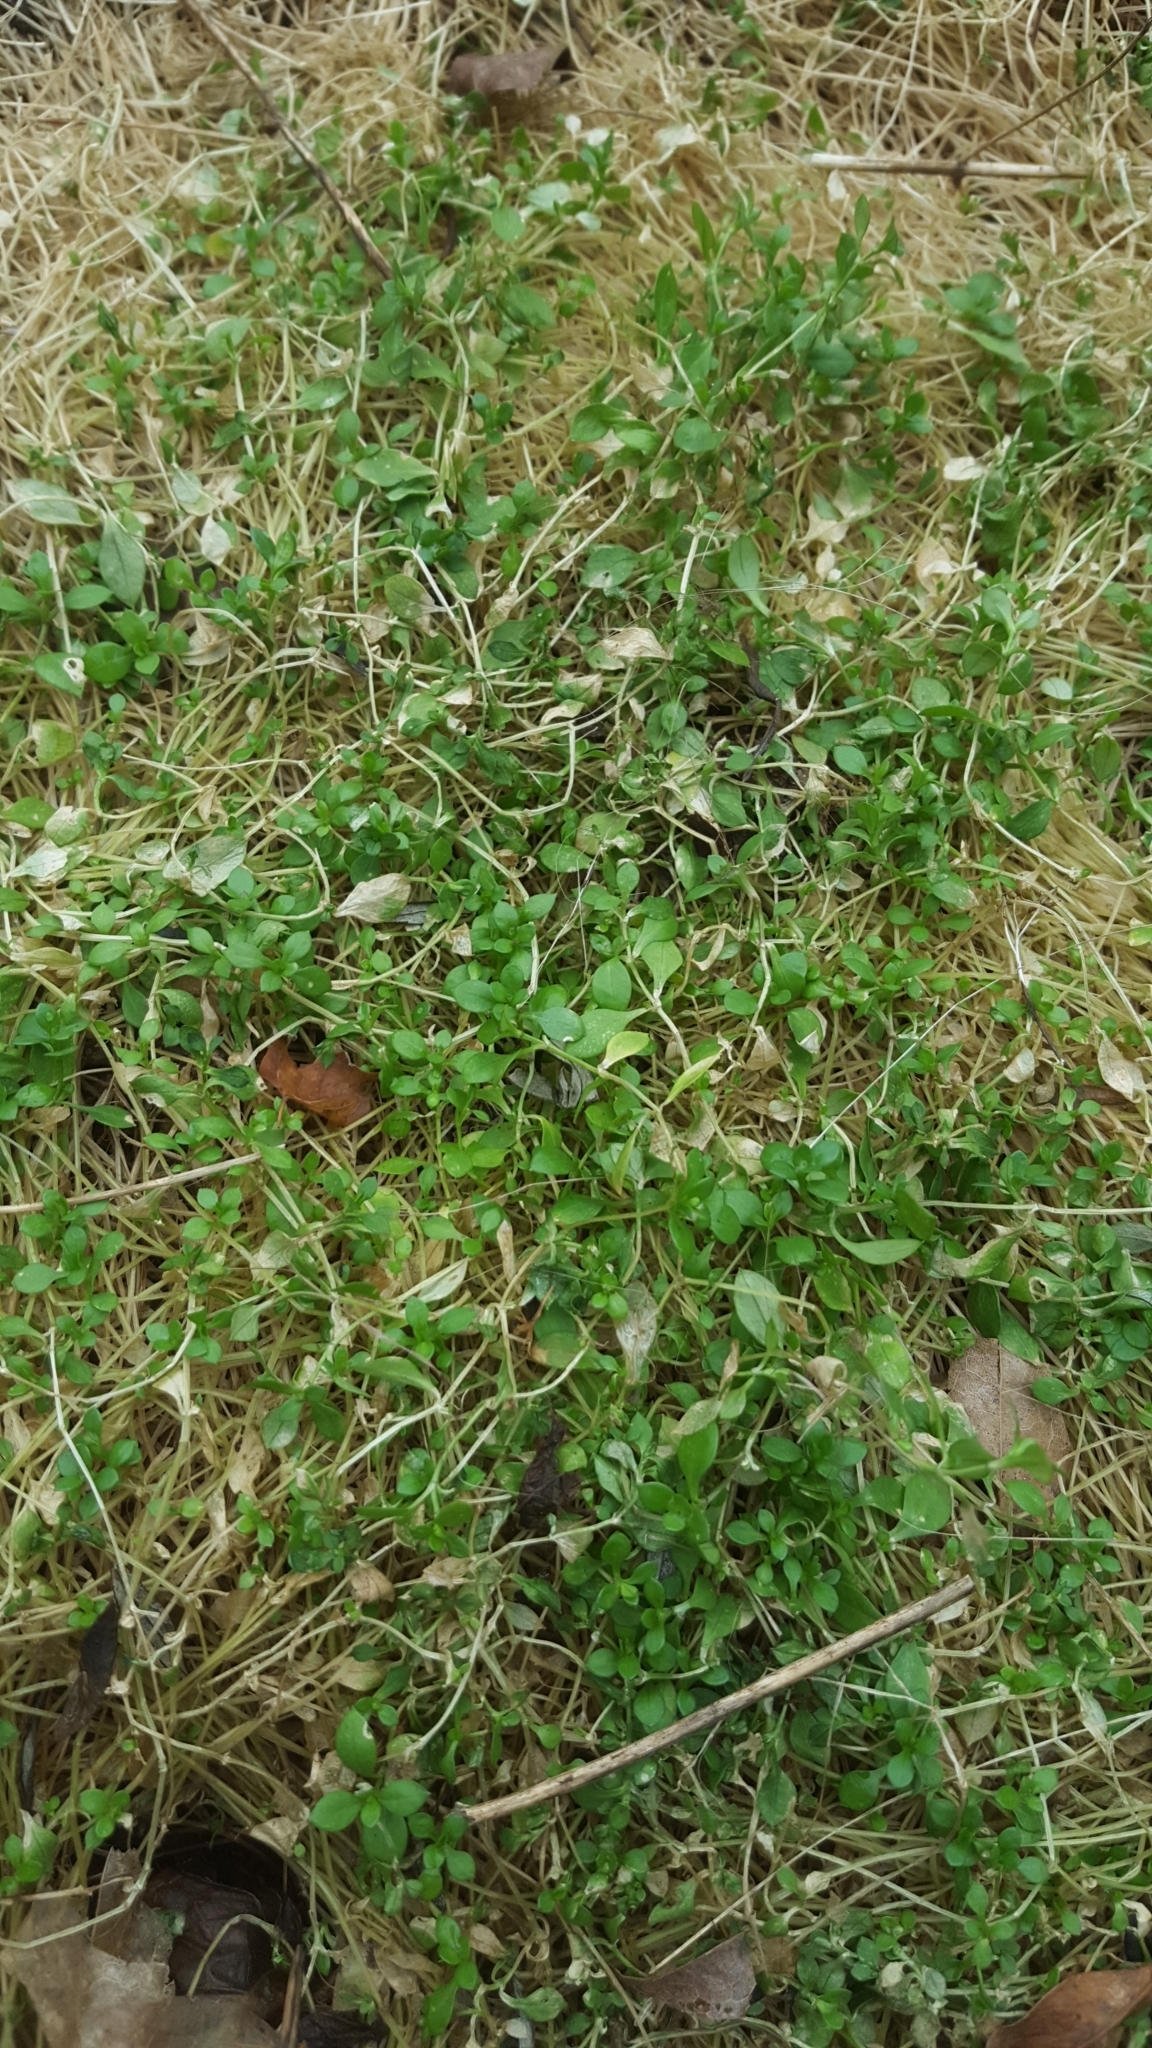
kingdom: Plantae
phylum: Tracheophyta
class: Magnoliopsida
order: Caryophyllales
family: Caryophyllaceae
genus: Stellaria
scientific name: Stellaria media
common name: Common chickweed
